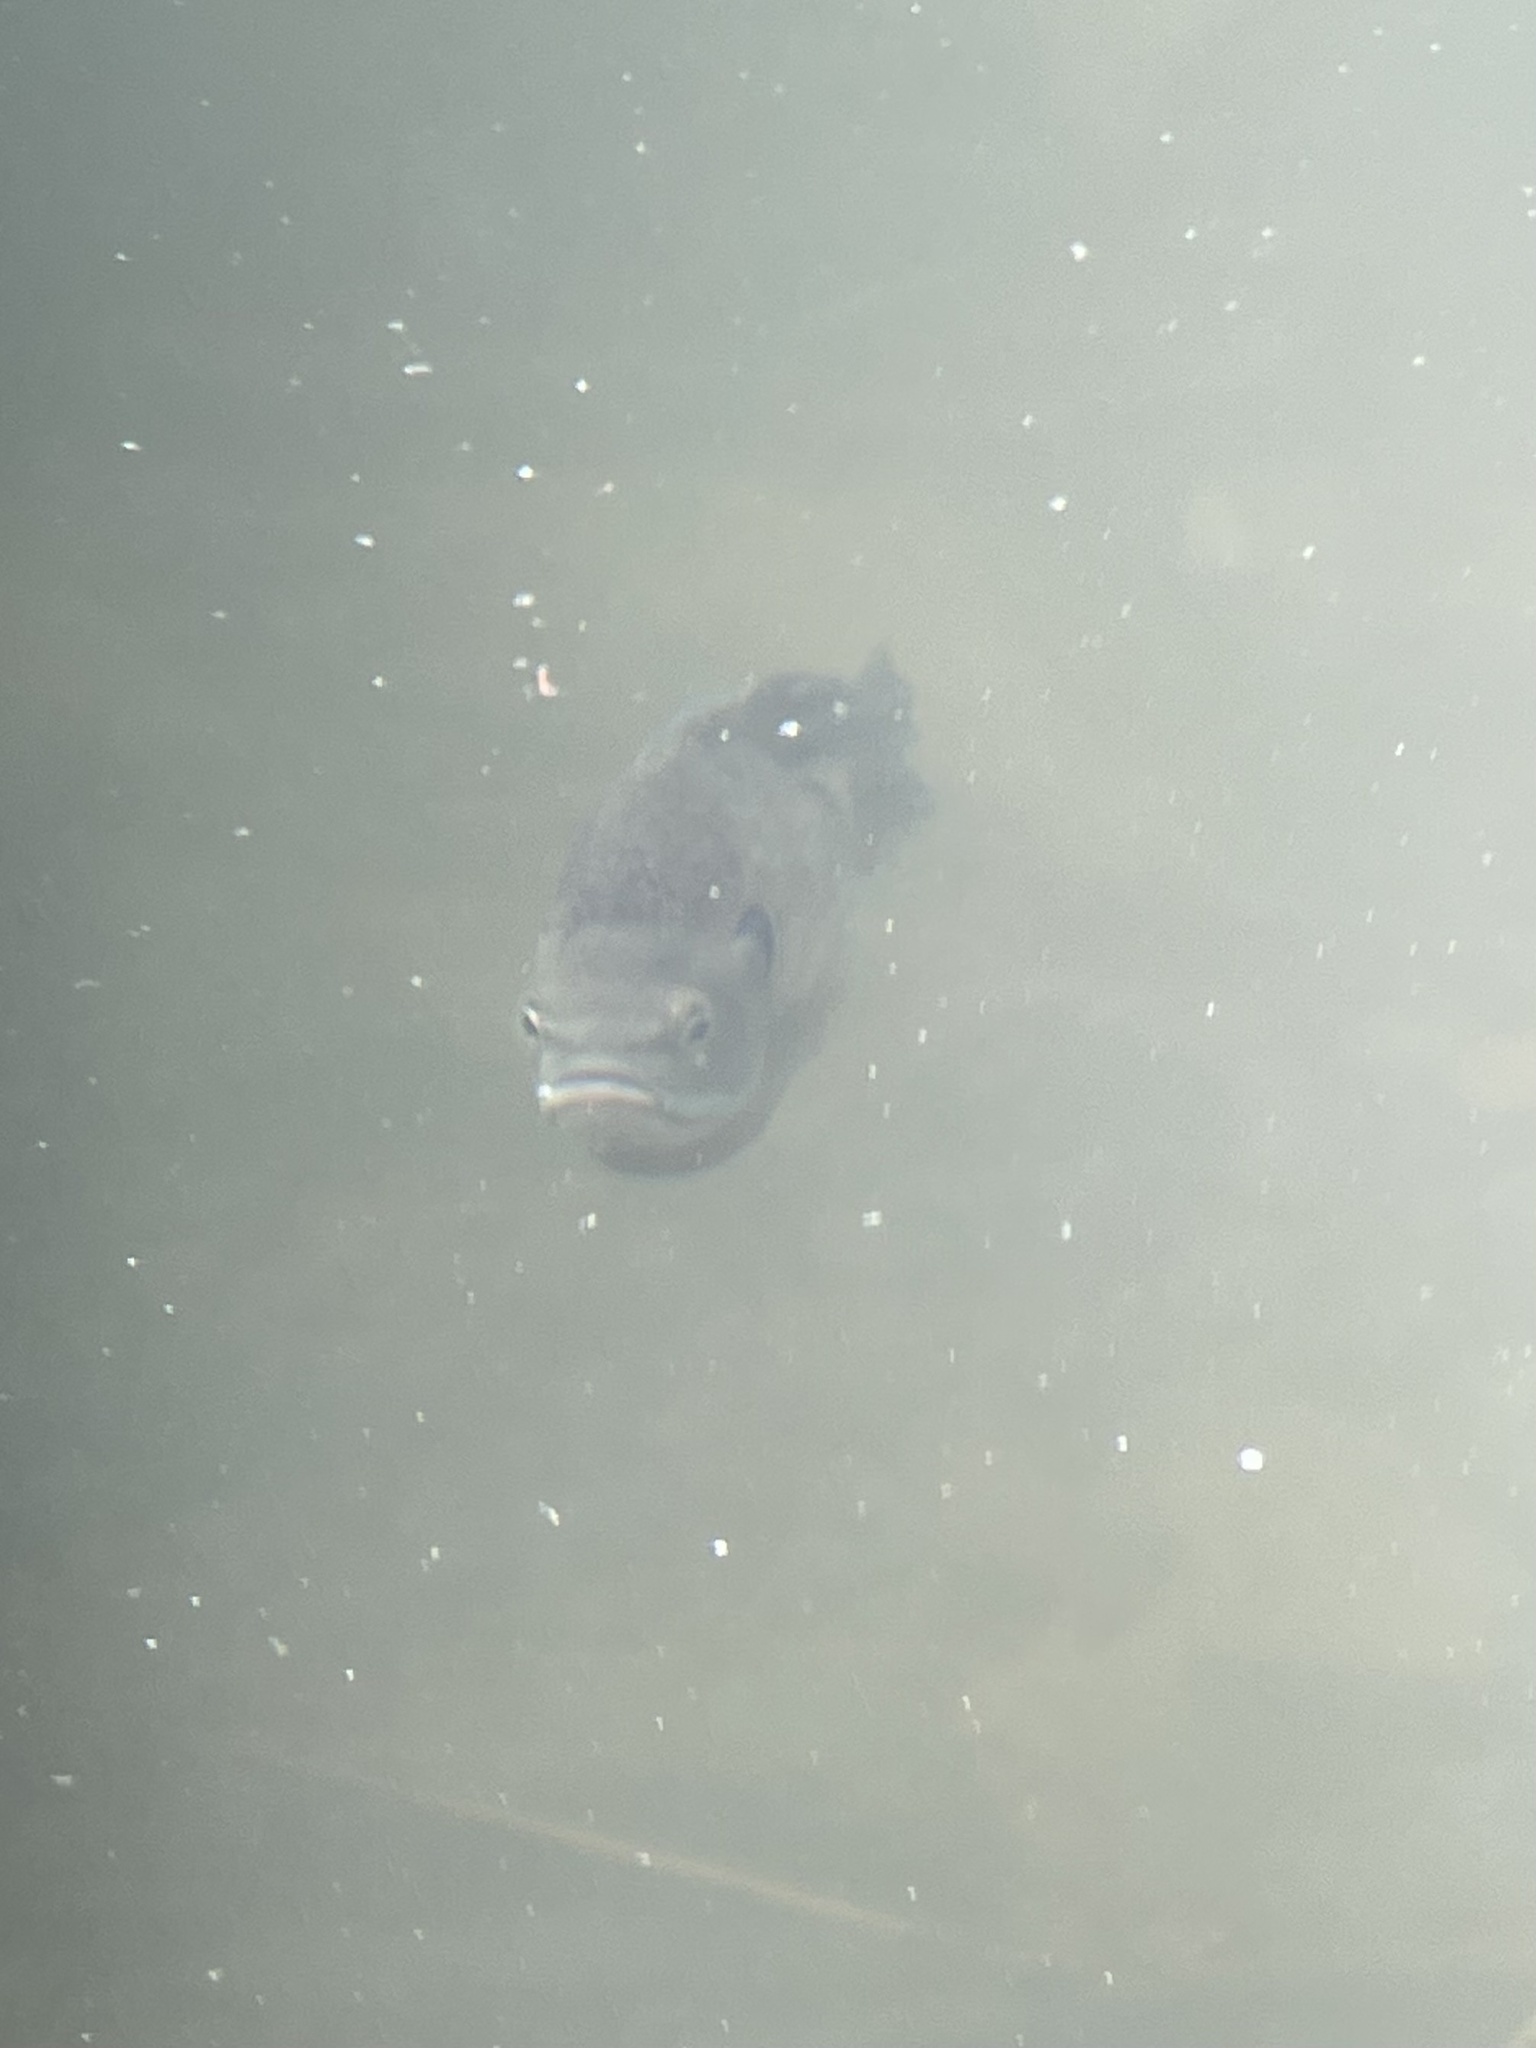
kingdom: Animalia
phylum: Chordata
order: Perciformes
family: Centrarchidae
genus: Lepomis
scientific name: Lepomis macrochirus
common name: Bluegill
